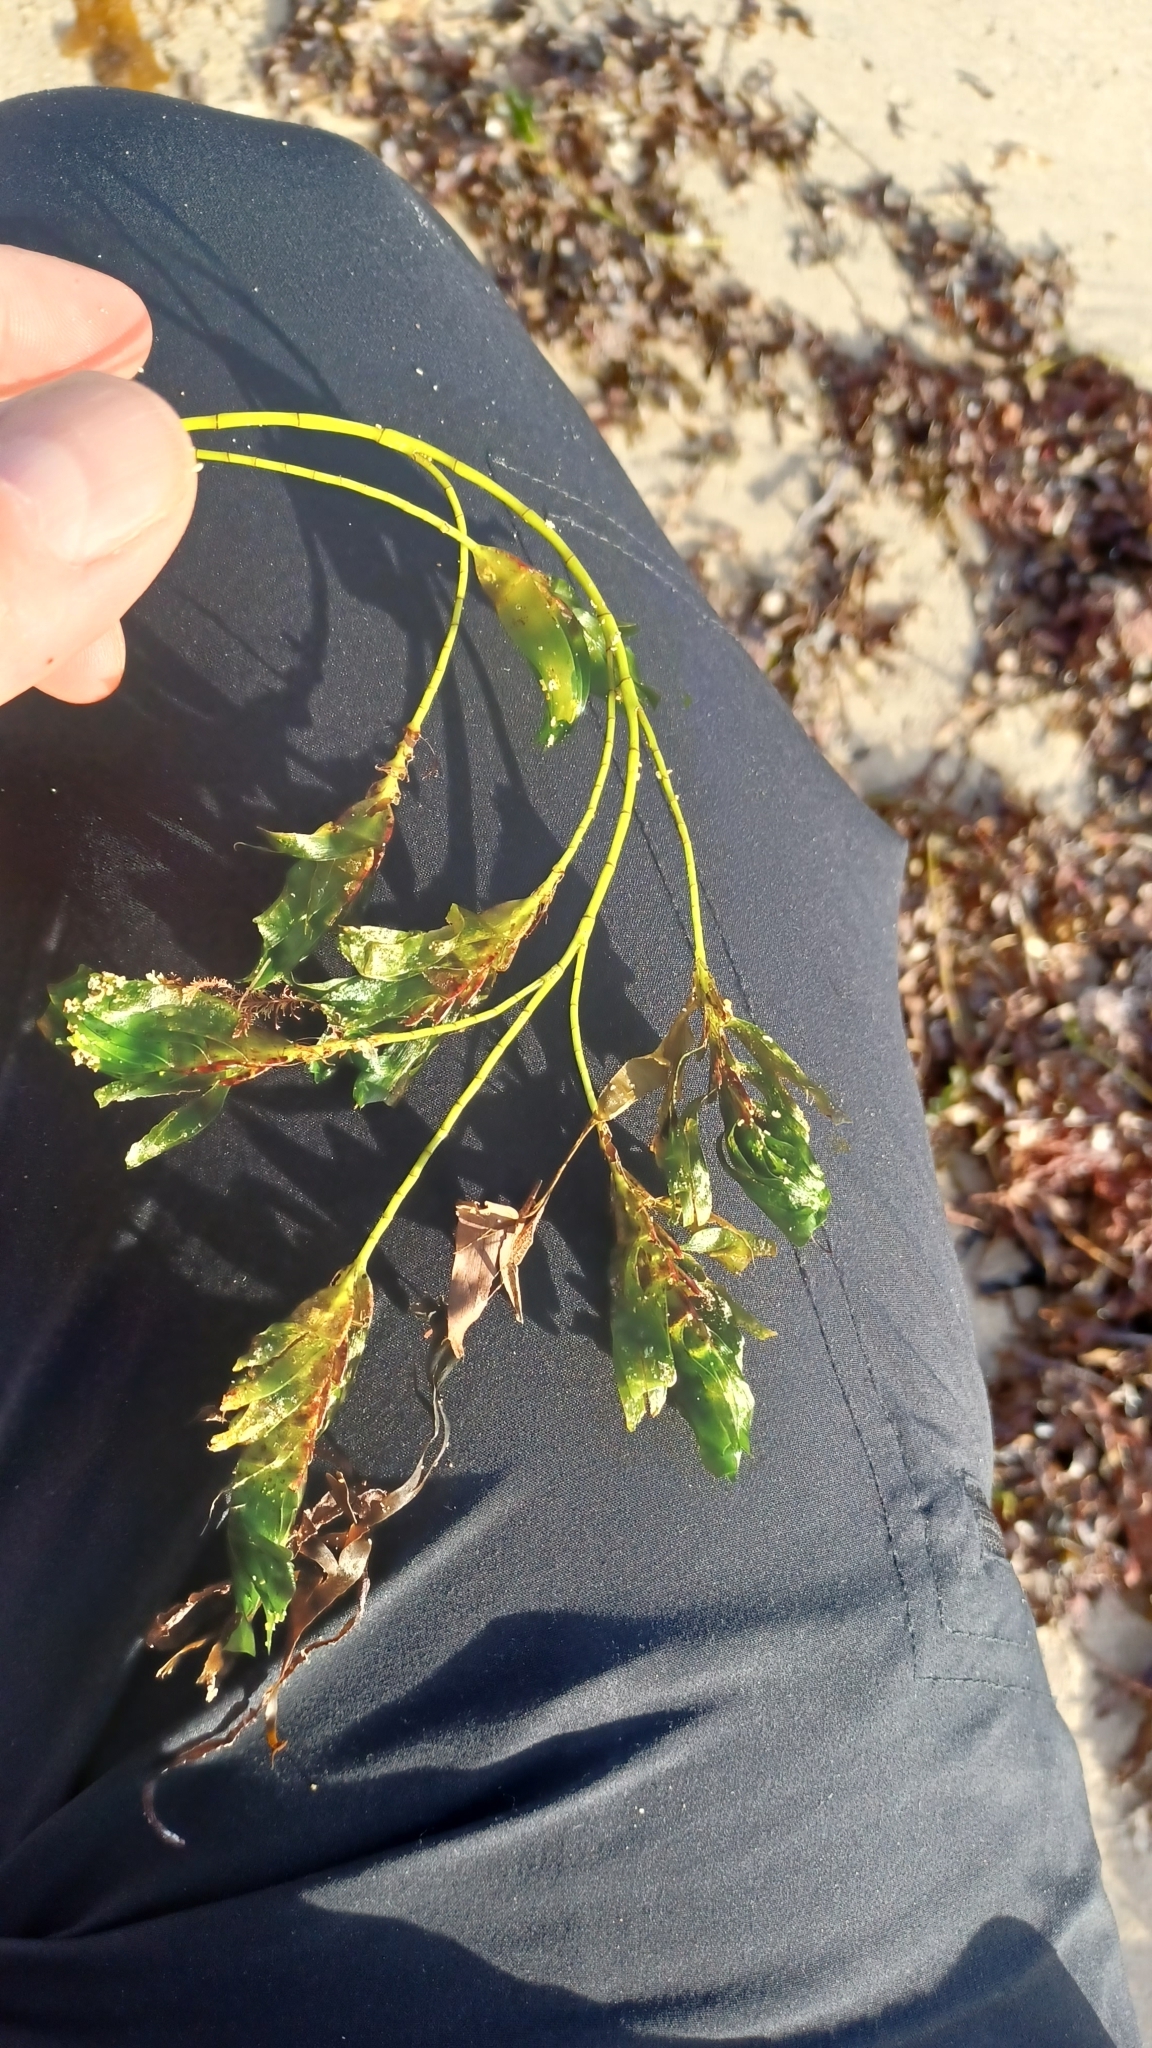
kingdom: Plantae
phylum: Tracheophyta
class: Liliopsida
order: Alismatales
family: Cymodoceaceae
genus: Amphibolis
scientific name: Amphibolis antarctica
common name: Species code: aa
